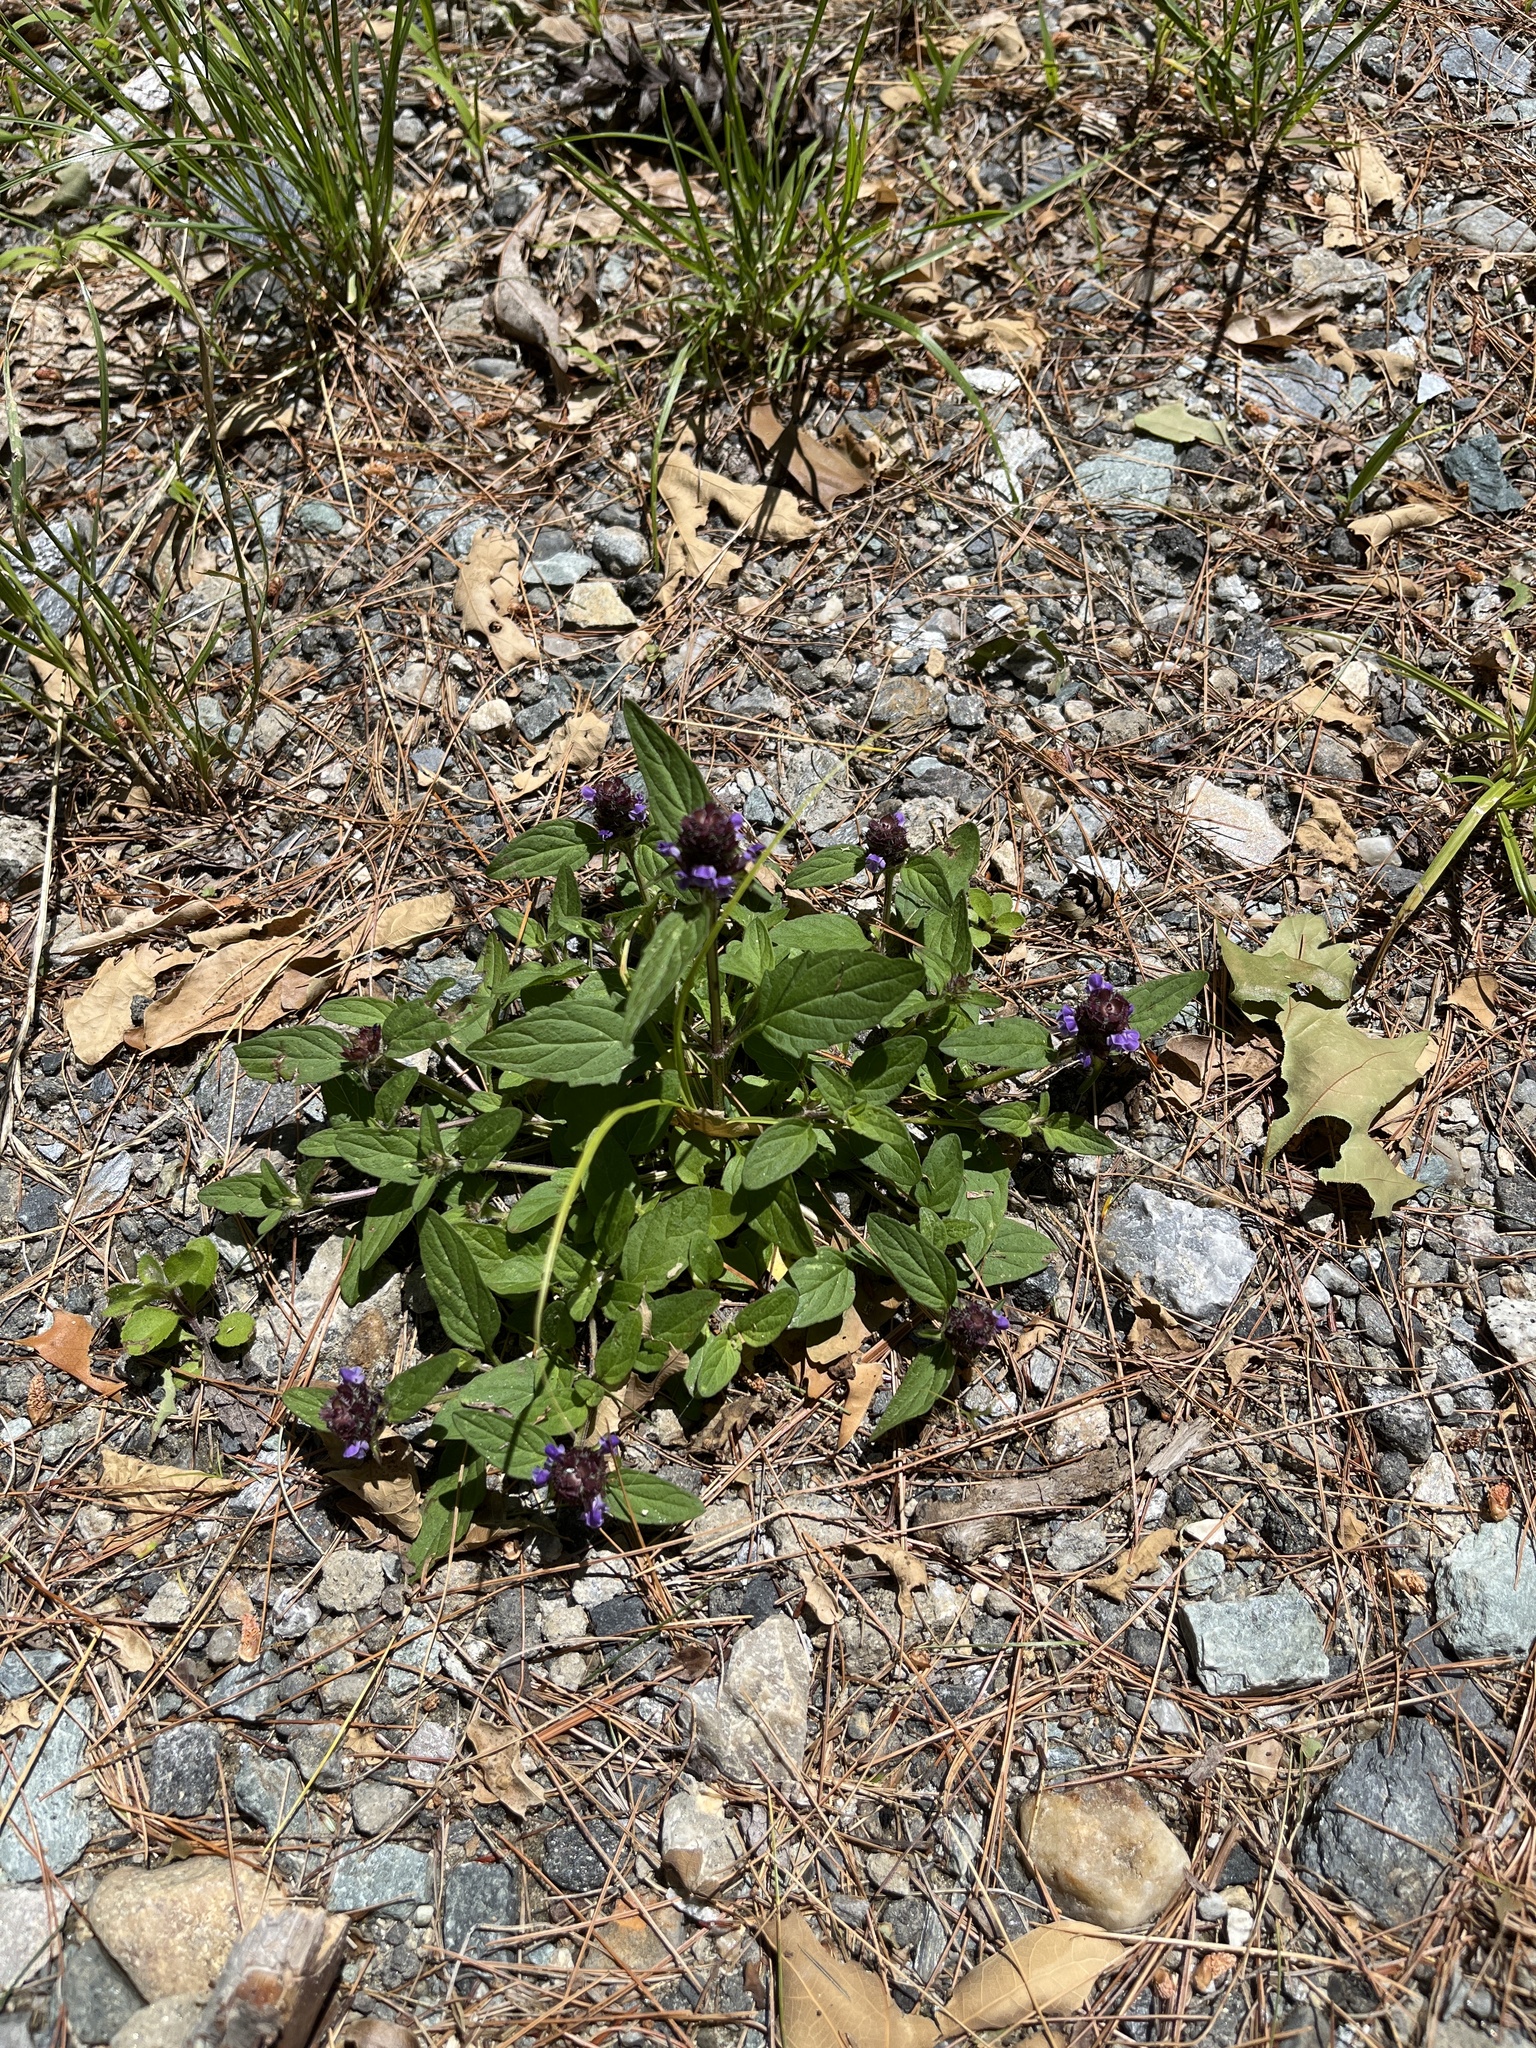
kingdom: Plantae
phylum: Tracheophyta
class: Magnoliopsida
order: Lamiales
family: Lamiaceae
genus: Prunella
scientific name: Prunella vulgaris
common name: Heal-all
